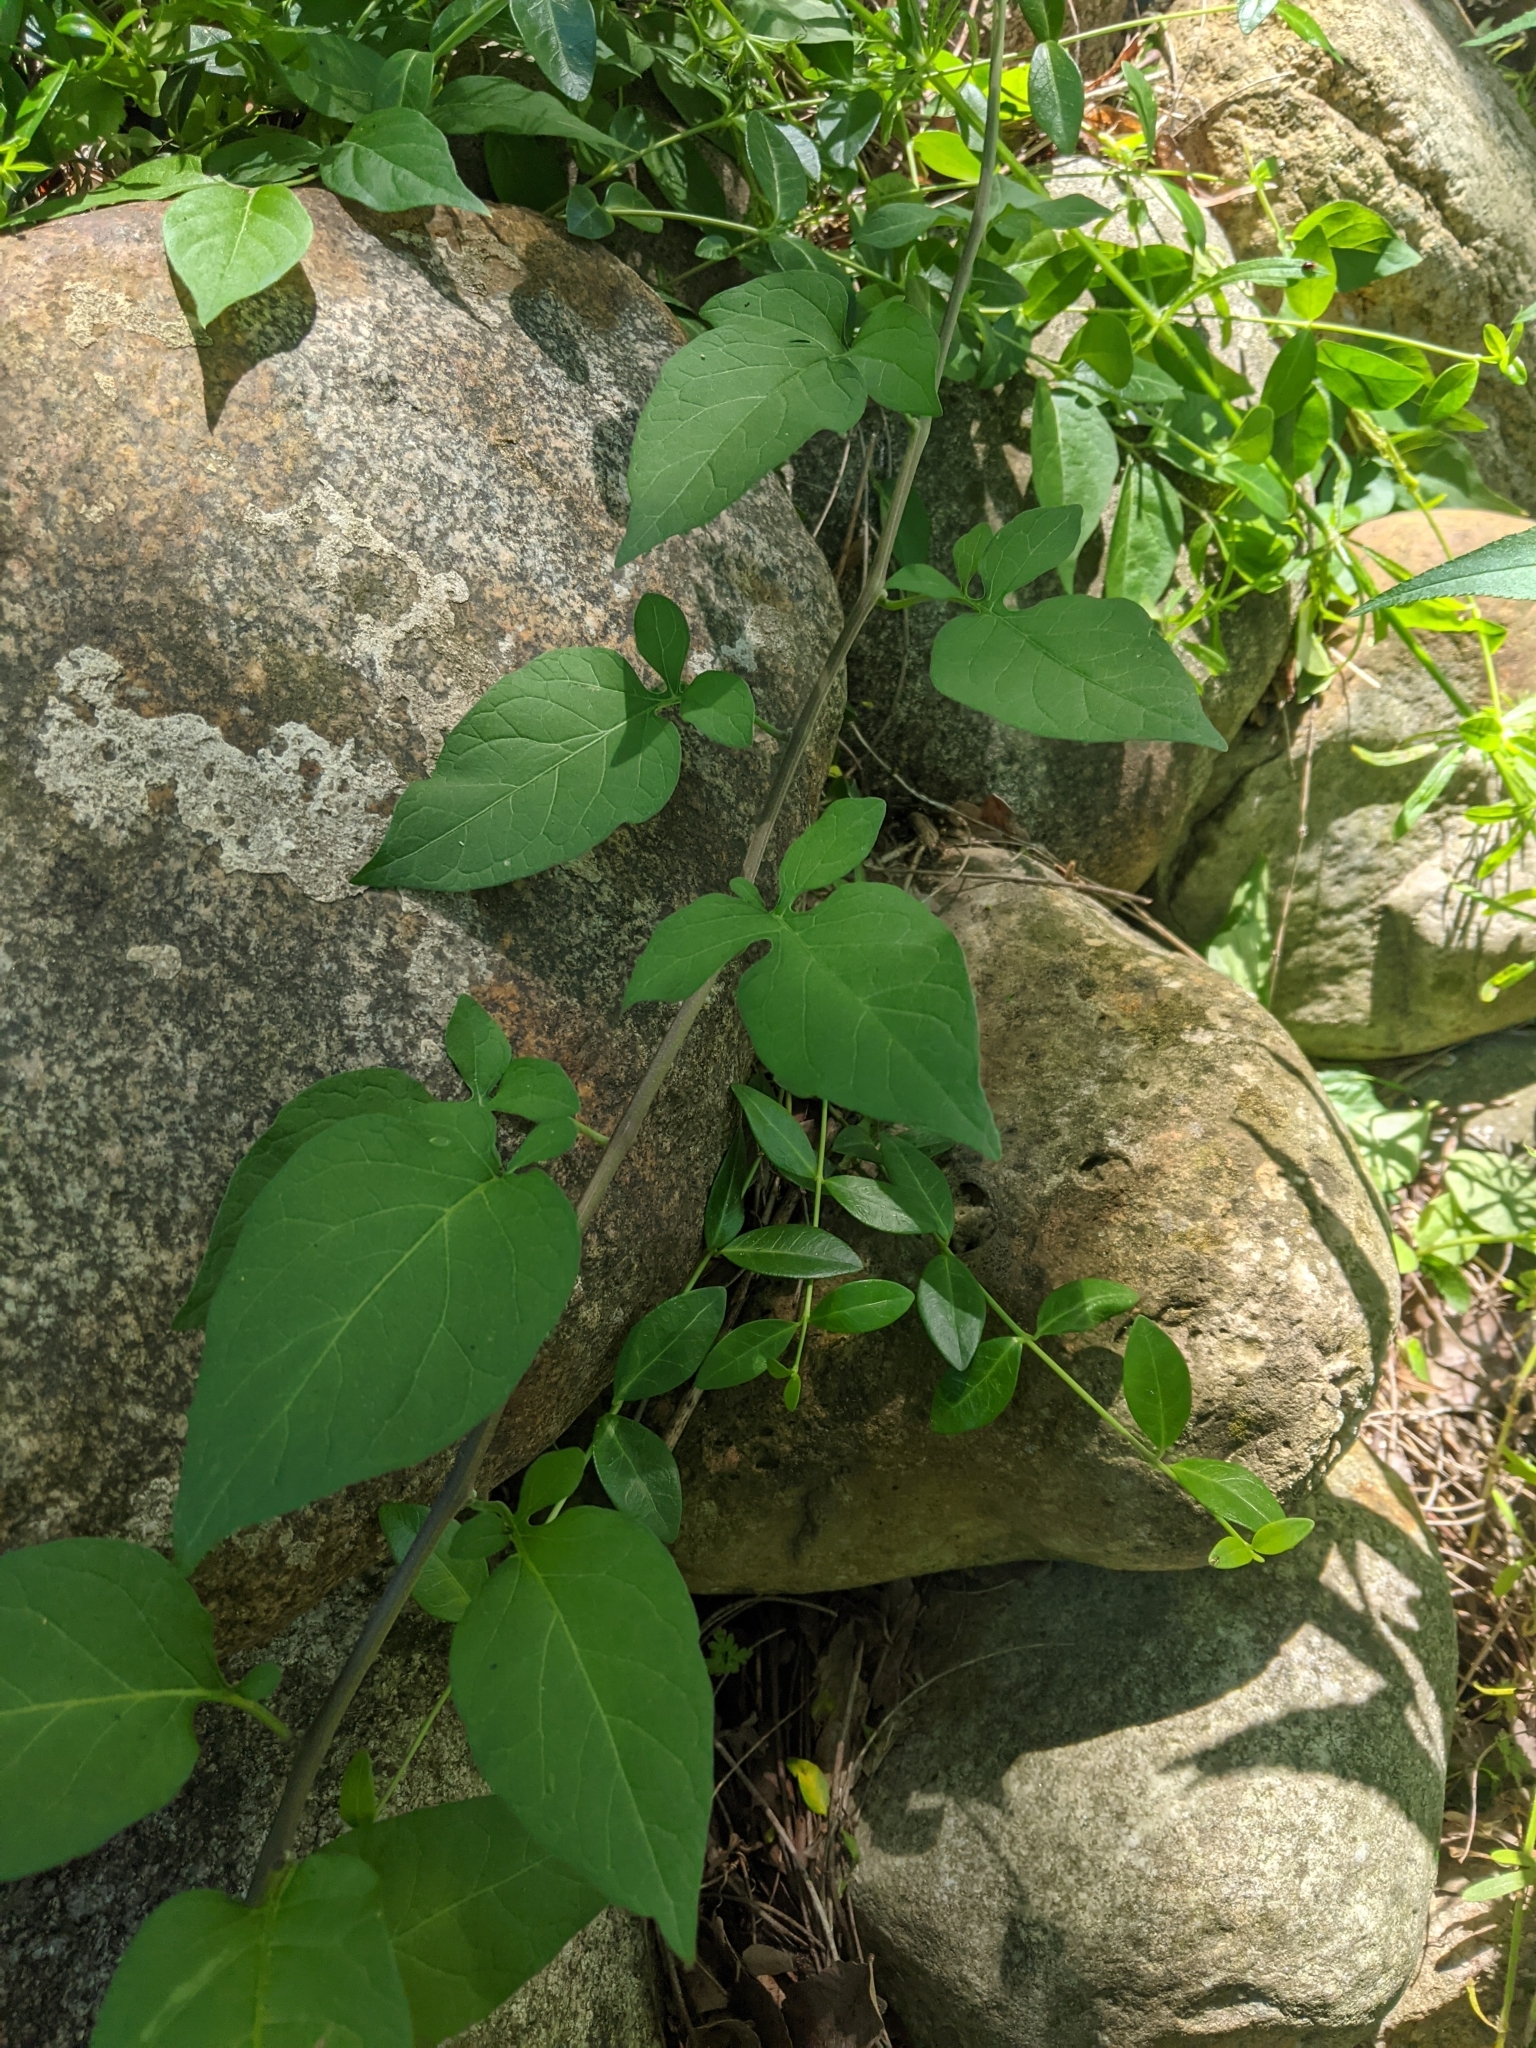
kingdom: Plantae
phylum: Tracheophyta
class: Magnoliopsida
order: Solanales
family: Solanaceae
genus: Solanum
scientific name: Solanum dulcamara
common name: Climbing nightshade
